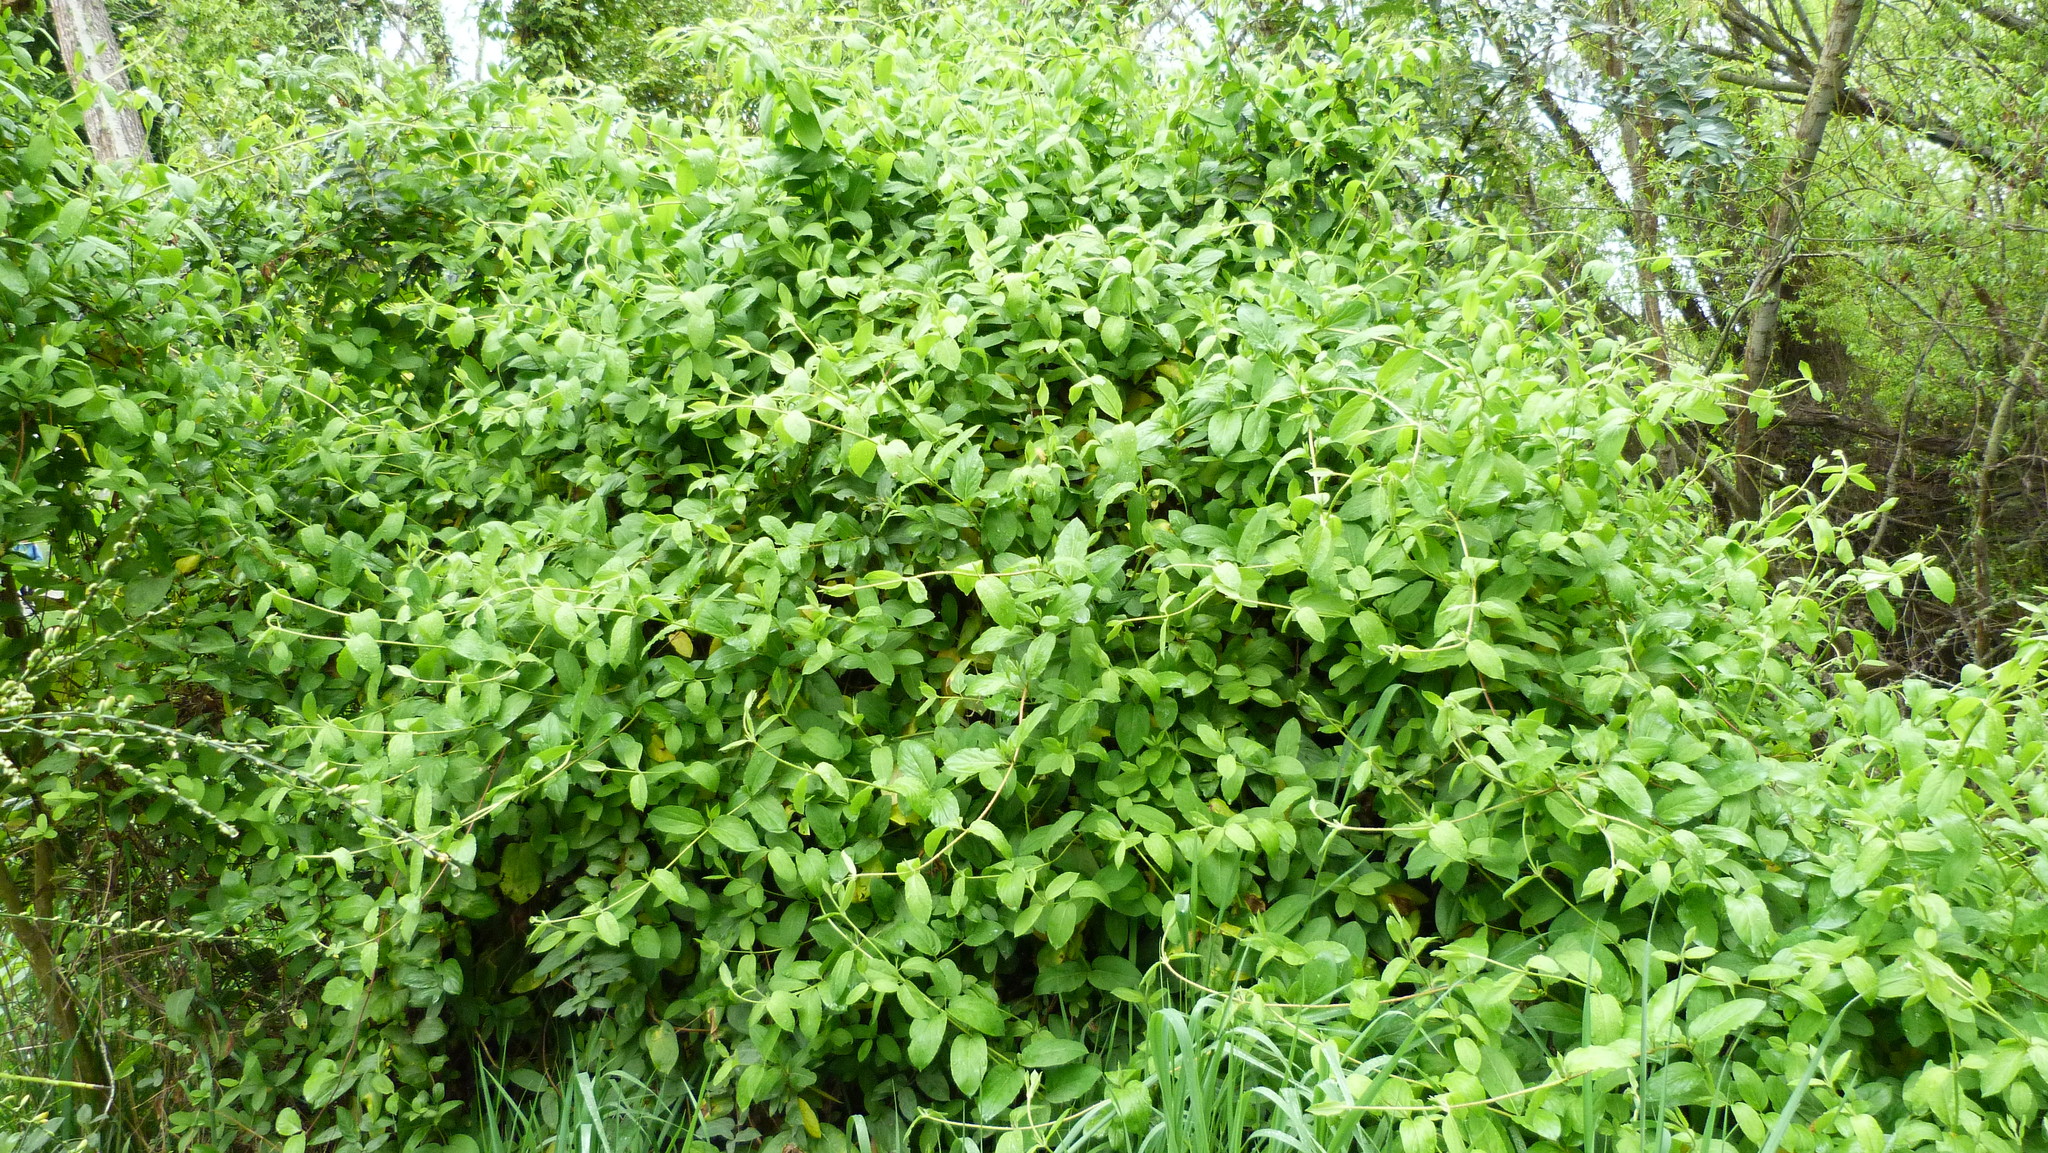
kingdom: Plantae
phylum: Tracheophyta
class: Magnoliopsida
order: Dipsacales
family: Caprifoliaceae
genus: Lonicera
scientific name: Lonicera japonica
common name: Japanese honeysuckle
